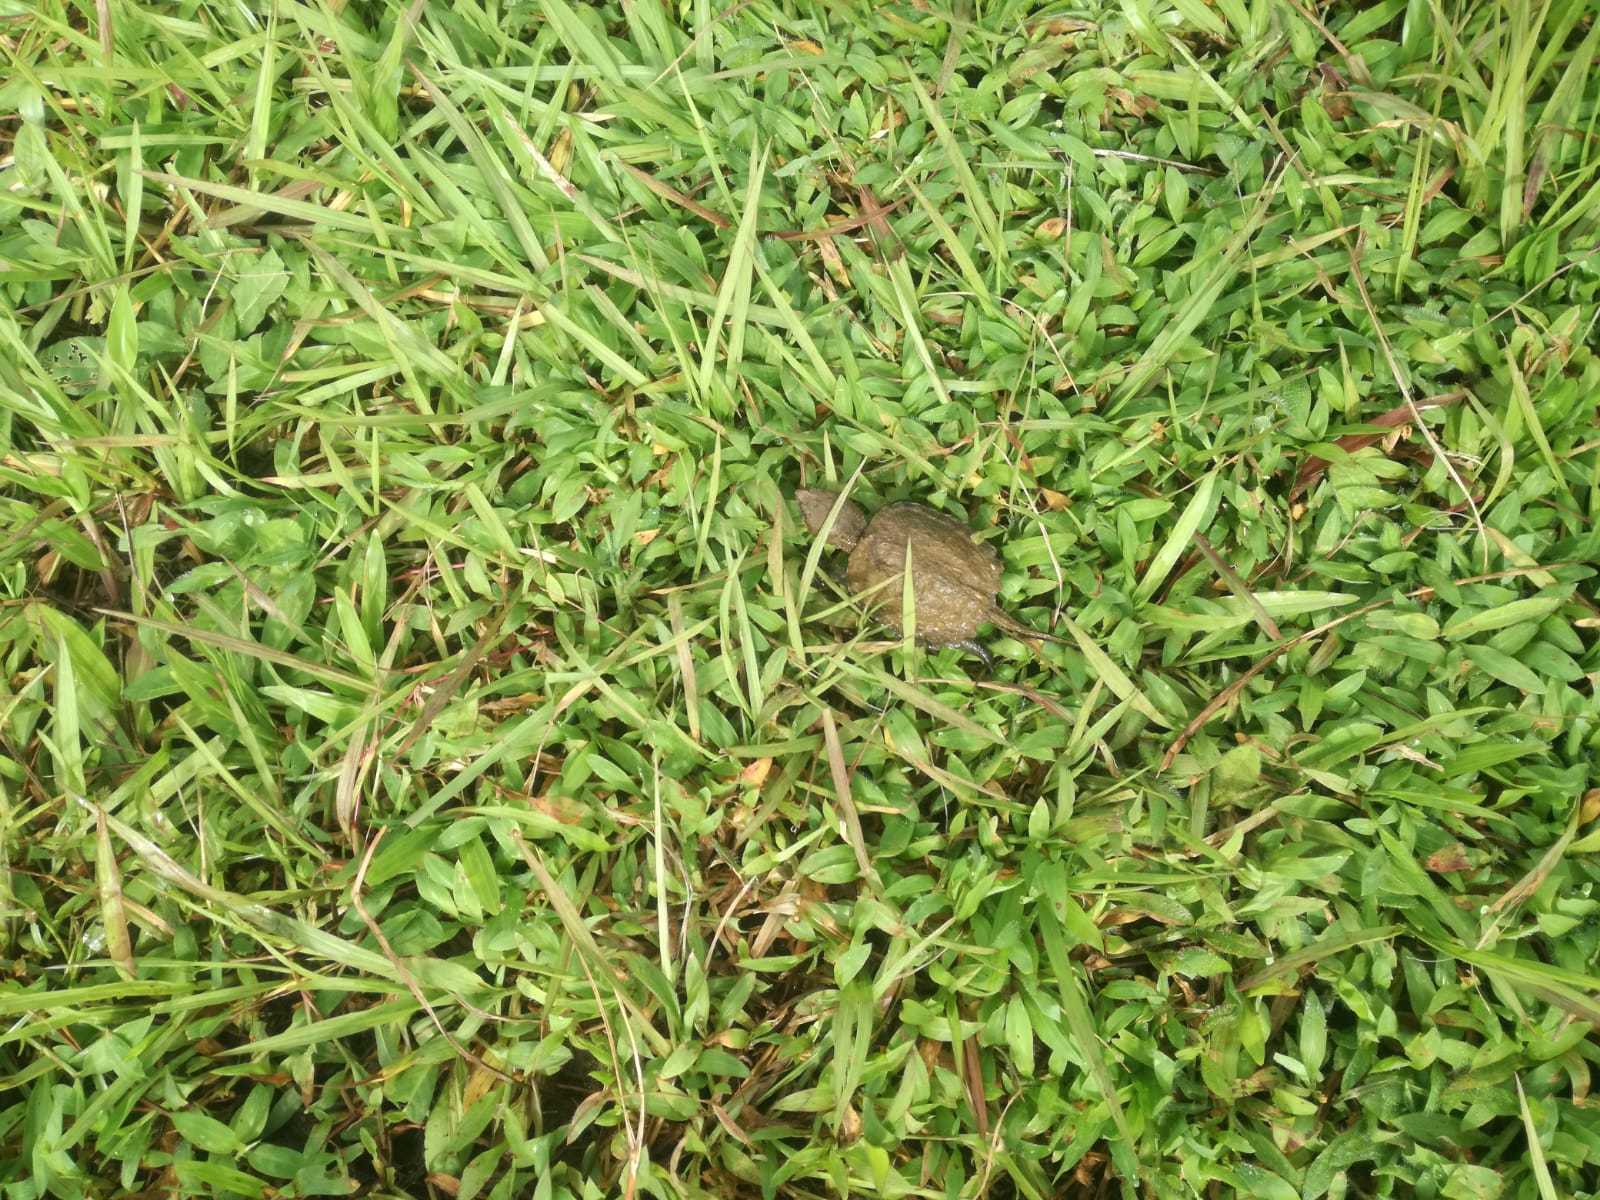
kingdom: Animalia
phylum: Chordata
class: Testudines
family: Chelydridae
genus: Chelydra
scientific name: Chelydra acutirostris
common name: South american snapping turtle
